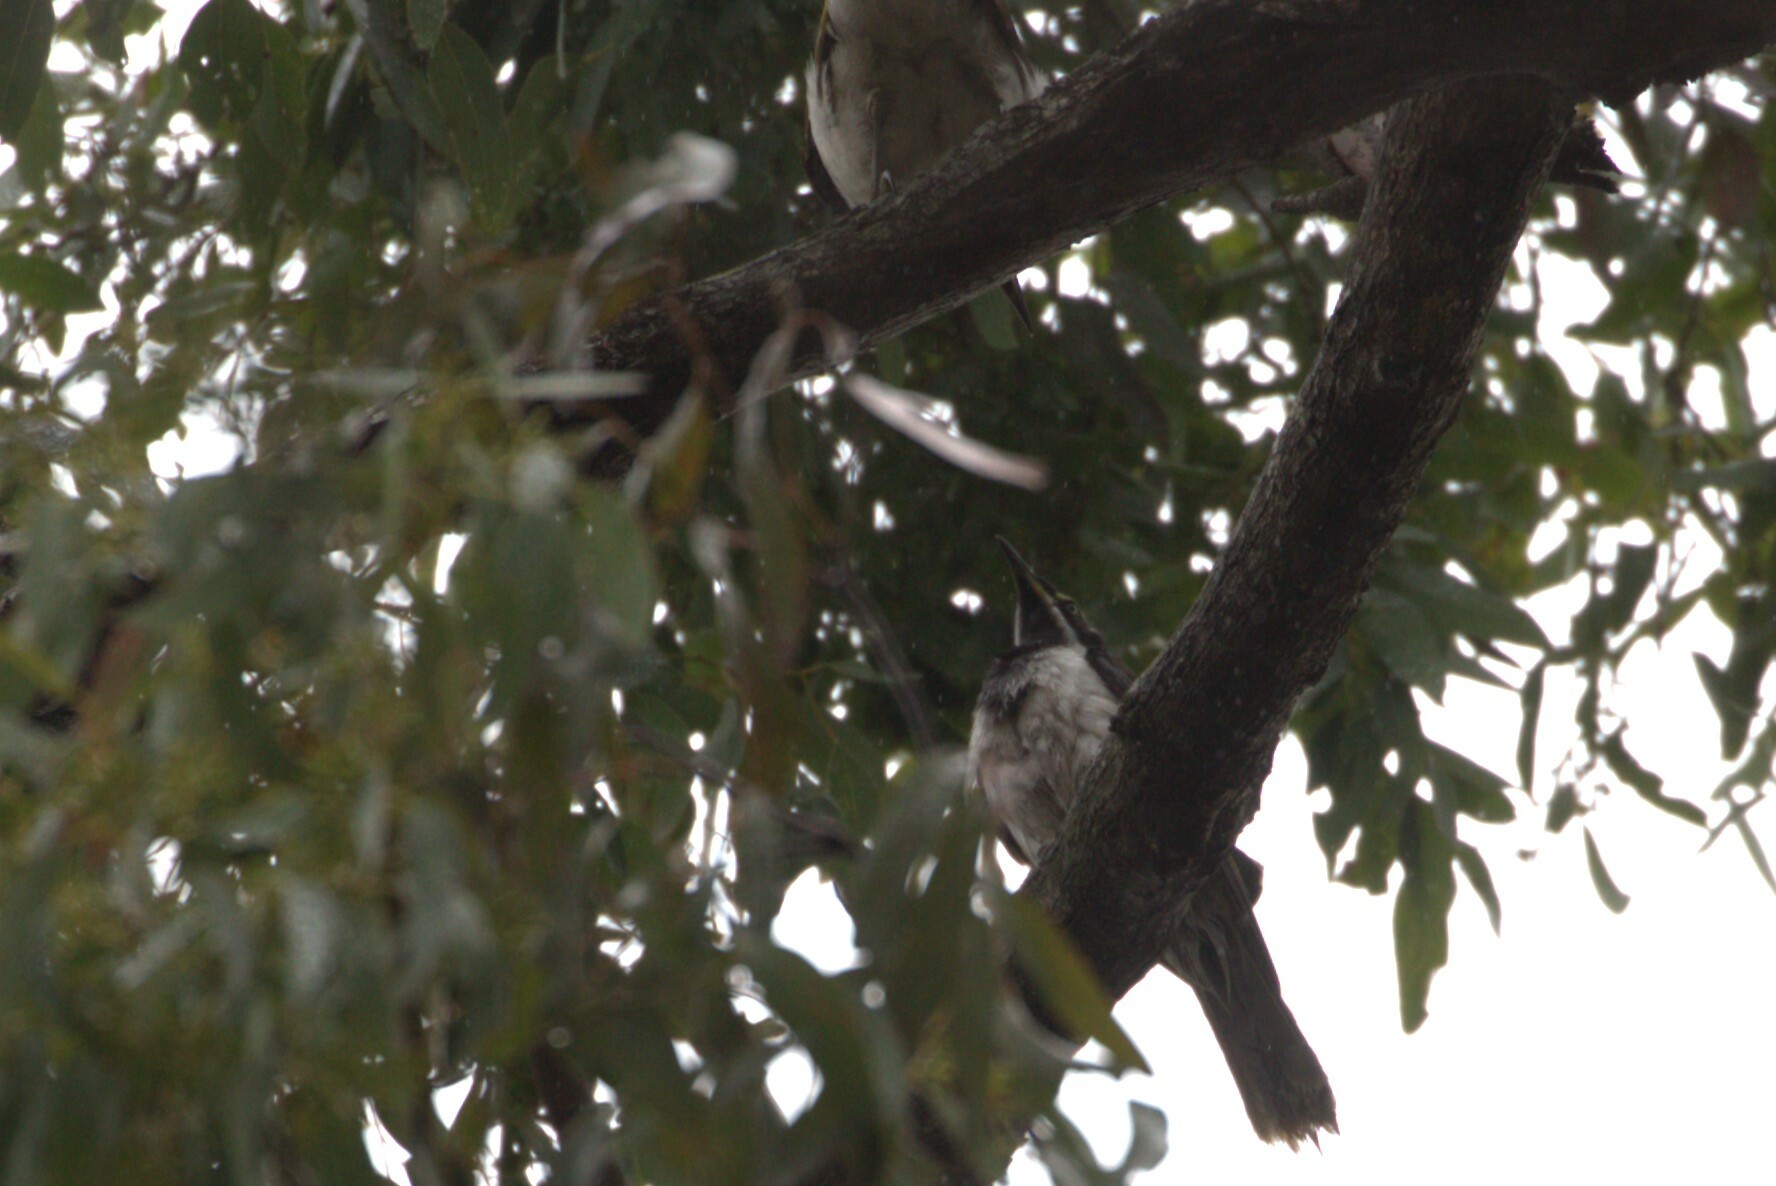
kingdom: Animalia
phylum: Chordata
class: Aves
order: Passeriformes
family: Meliphagidae
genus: Entomyzon
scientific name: Entomyzon cyanotis
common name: Blue-faced honeyeater
